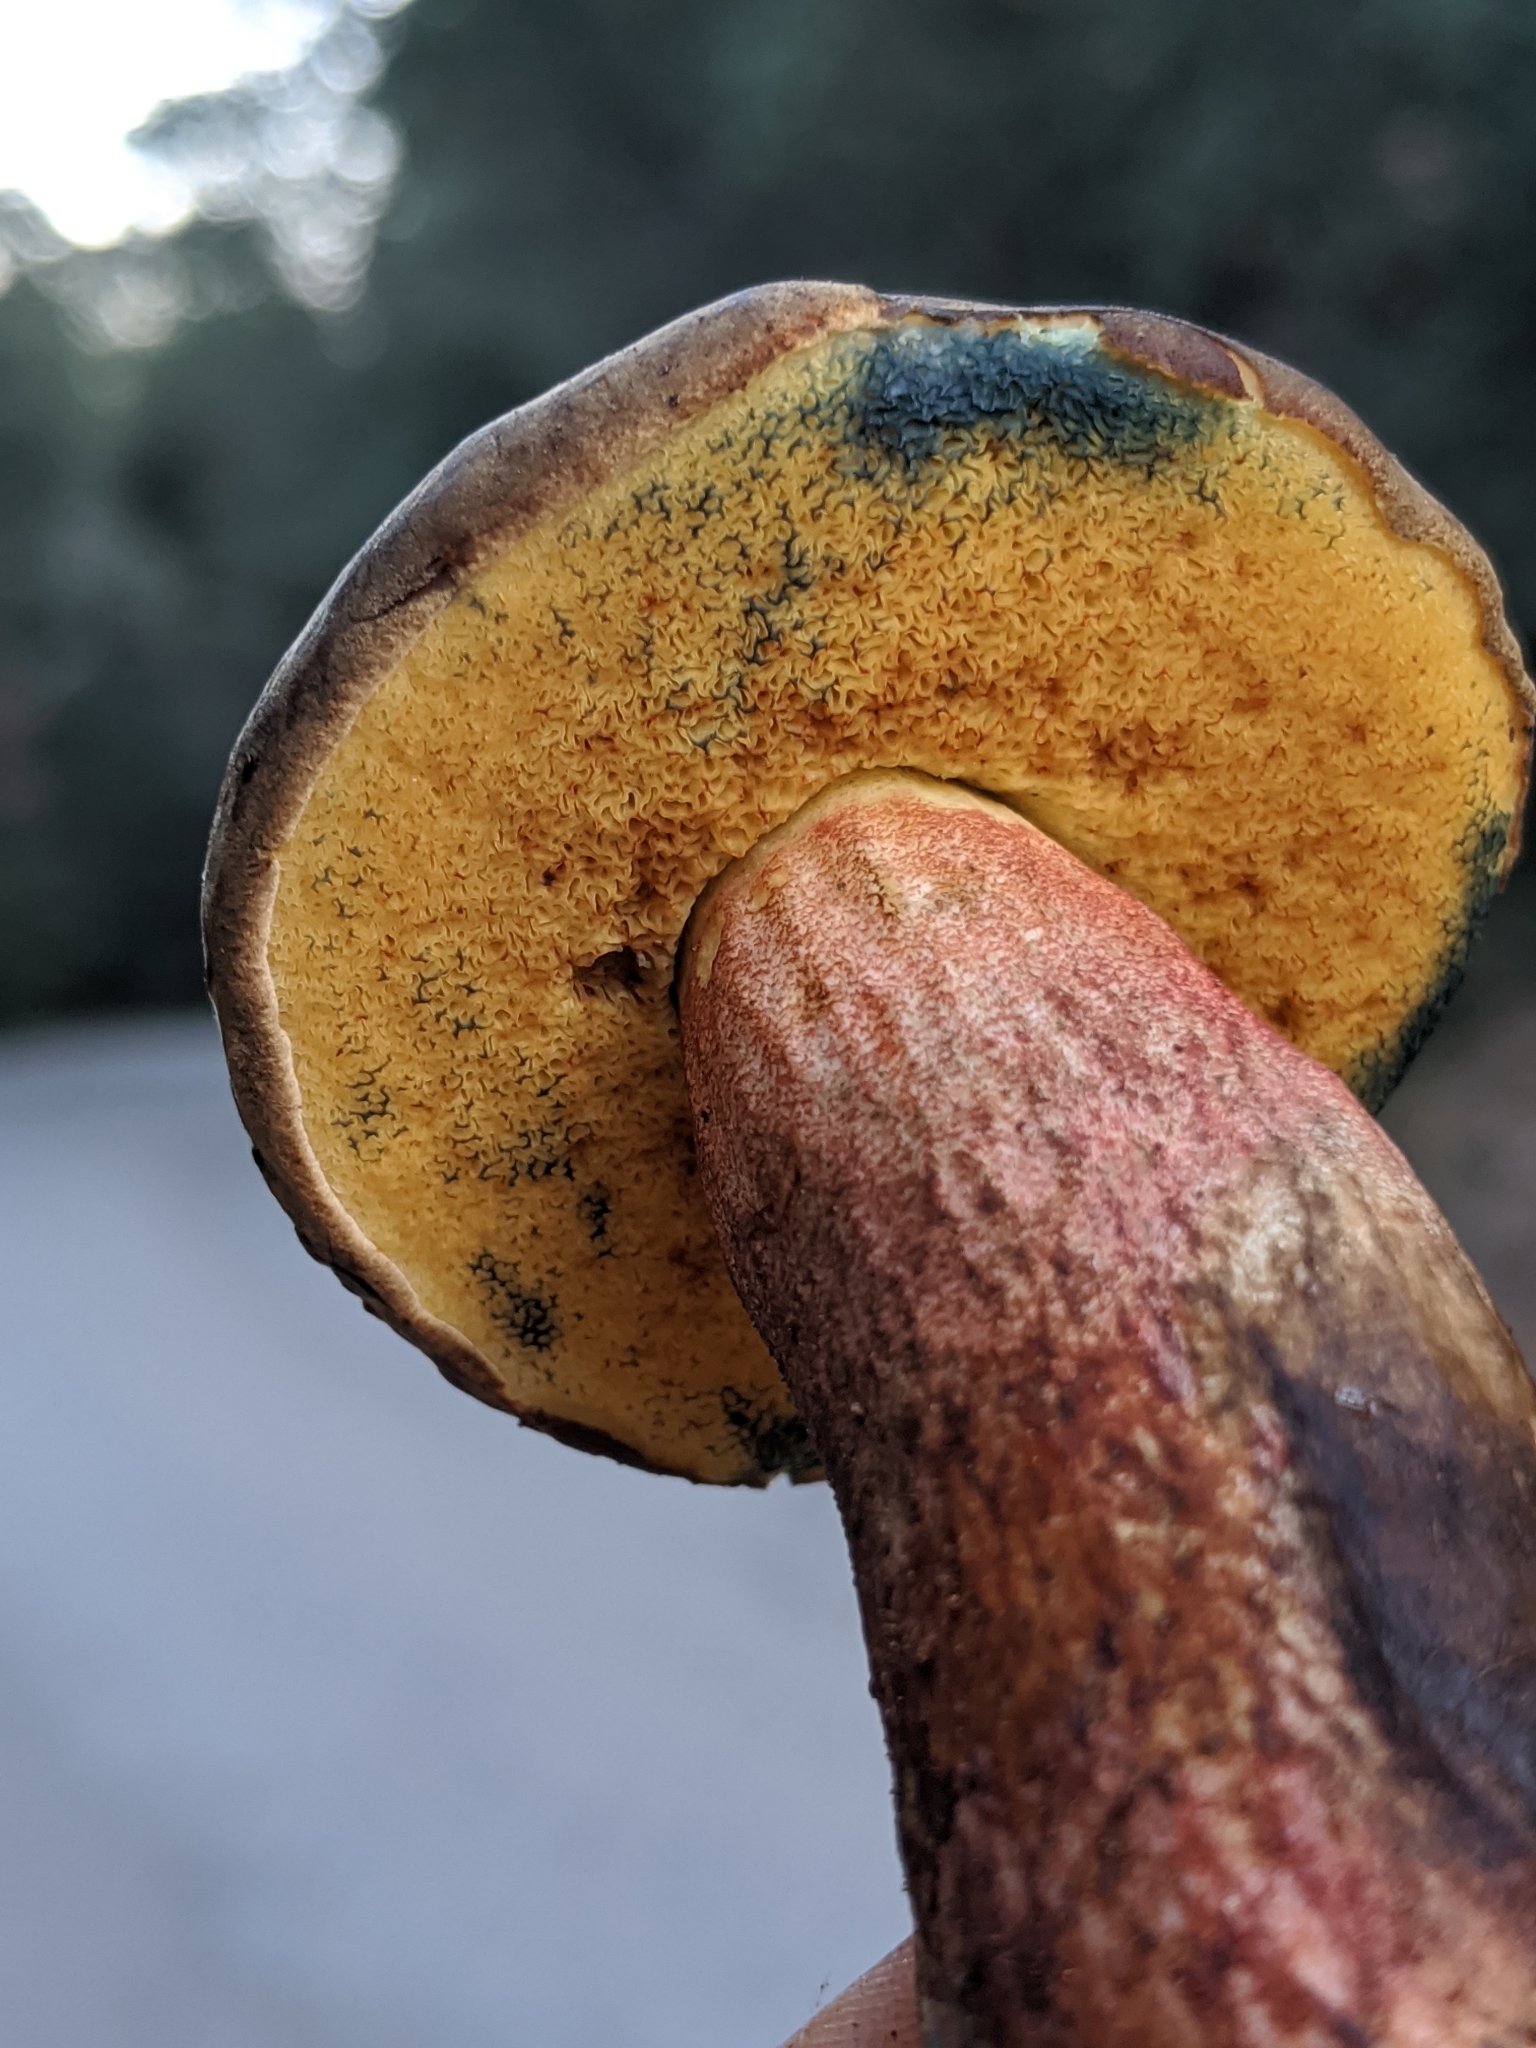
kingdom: Fungi
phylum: Basidiomycota
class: Agaricomycetes
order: Boletales
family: Boletaceae
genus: Xerocomellus
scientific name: Xerocomellus mendocinensis
